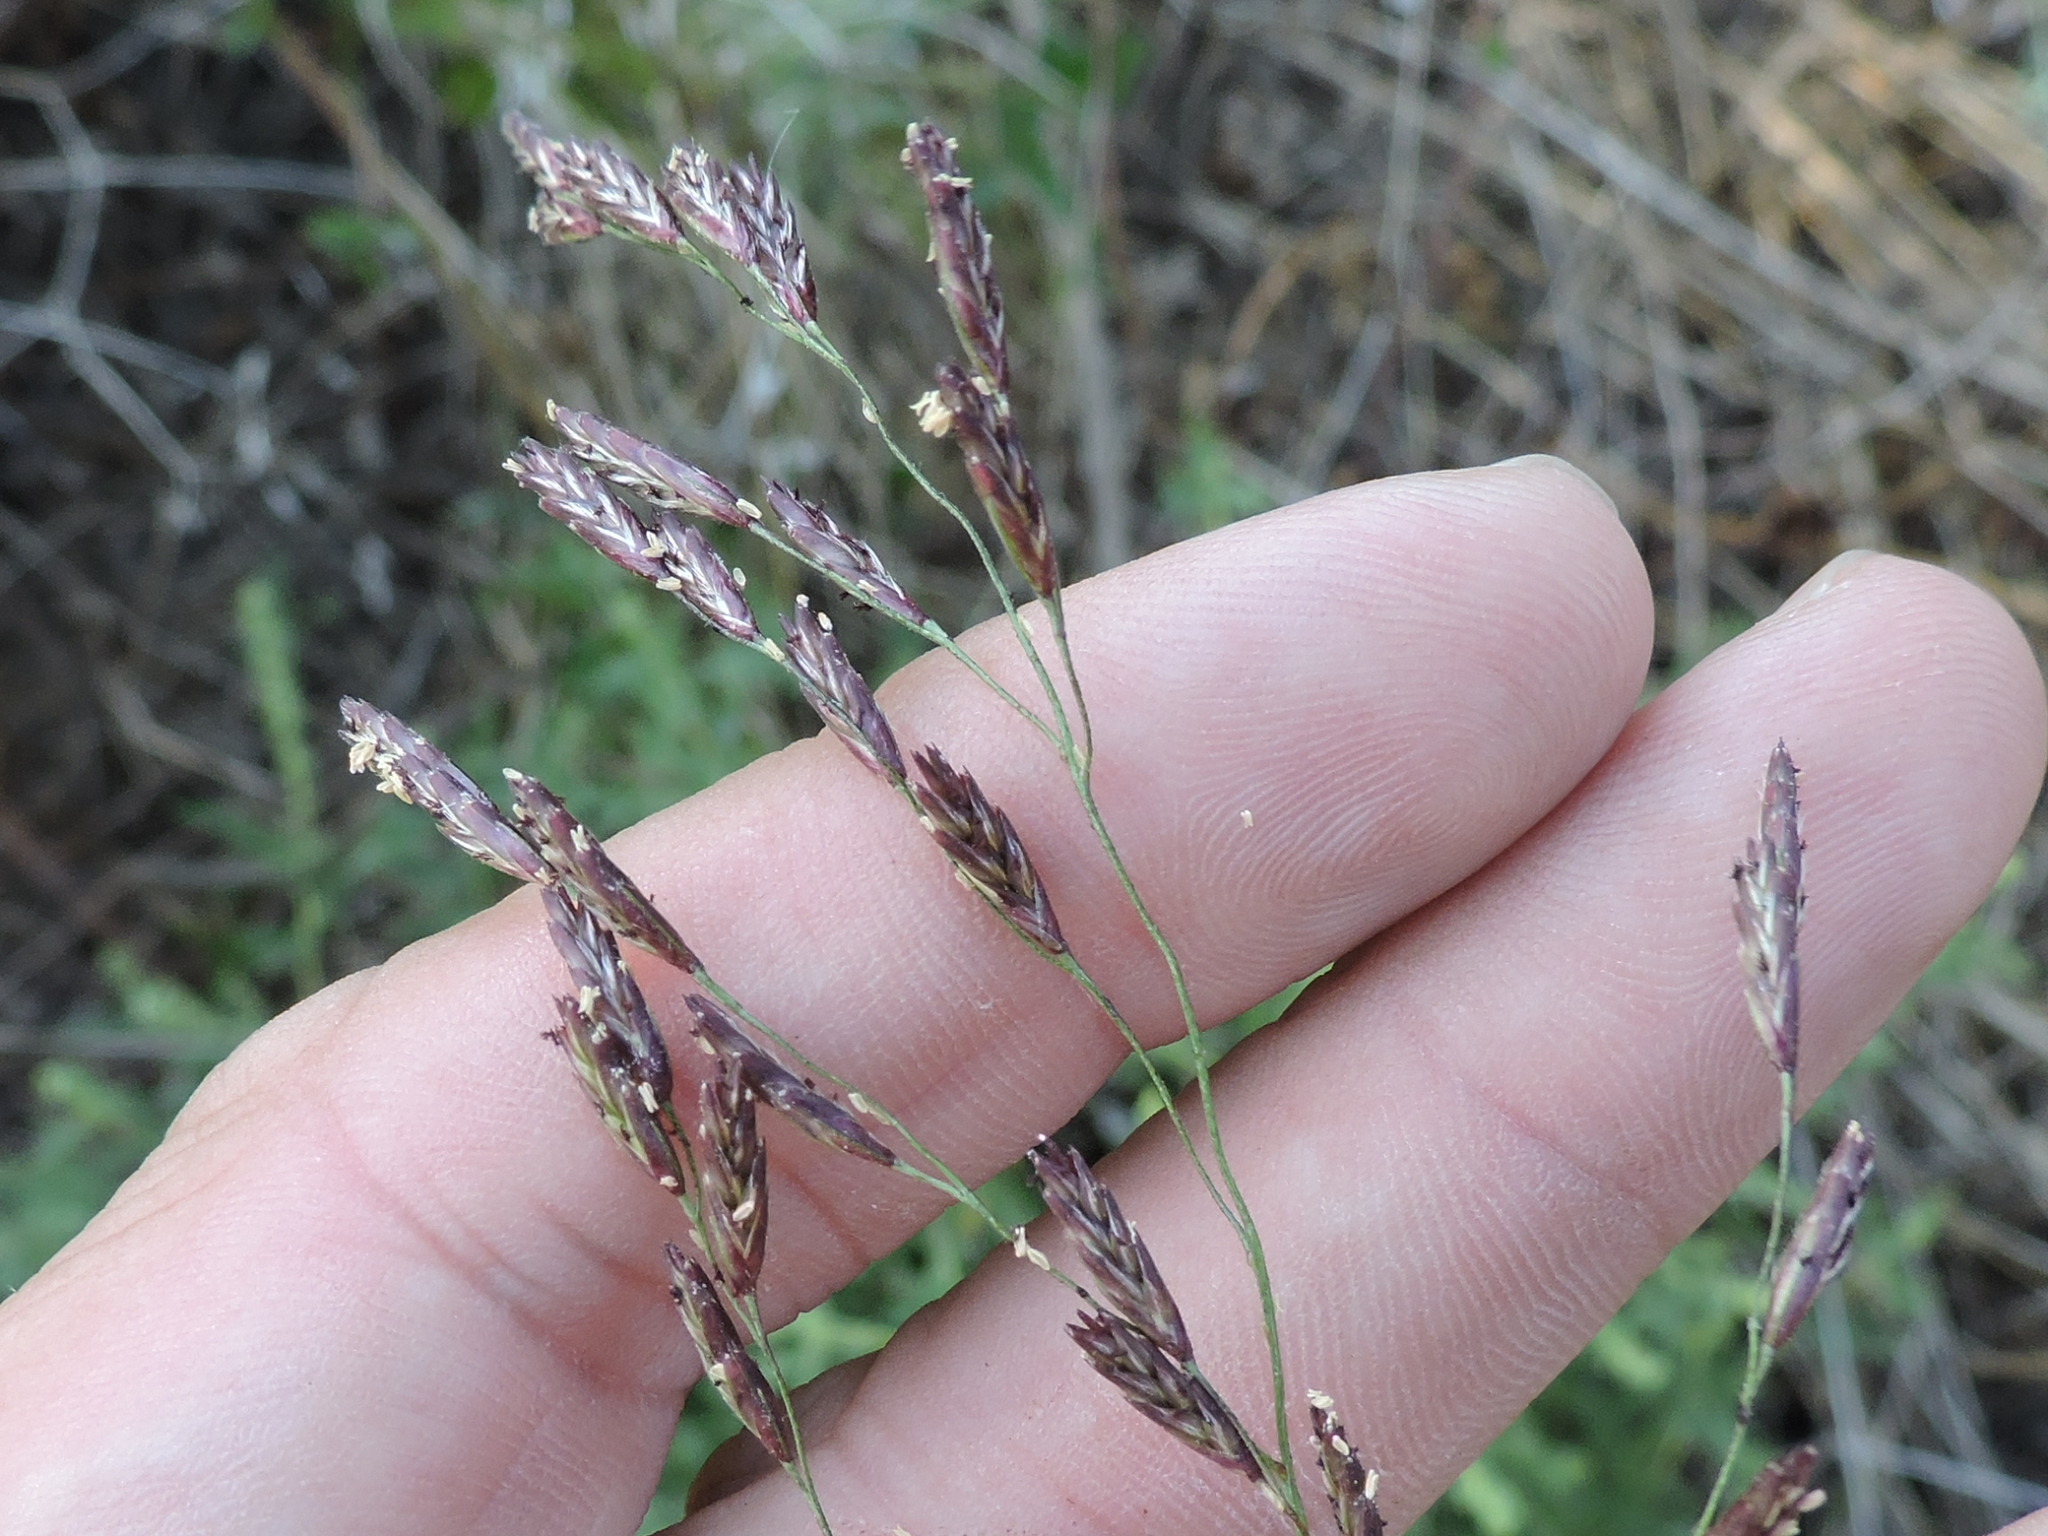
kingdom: Plantae
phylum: Tracheophyta
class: Liliopsida
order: Poales
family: Poaceae
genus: Tridens
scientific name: Tridens flavus
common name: Purpletop
